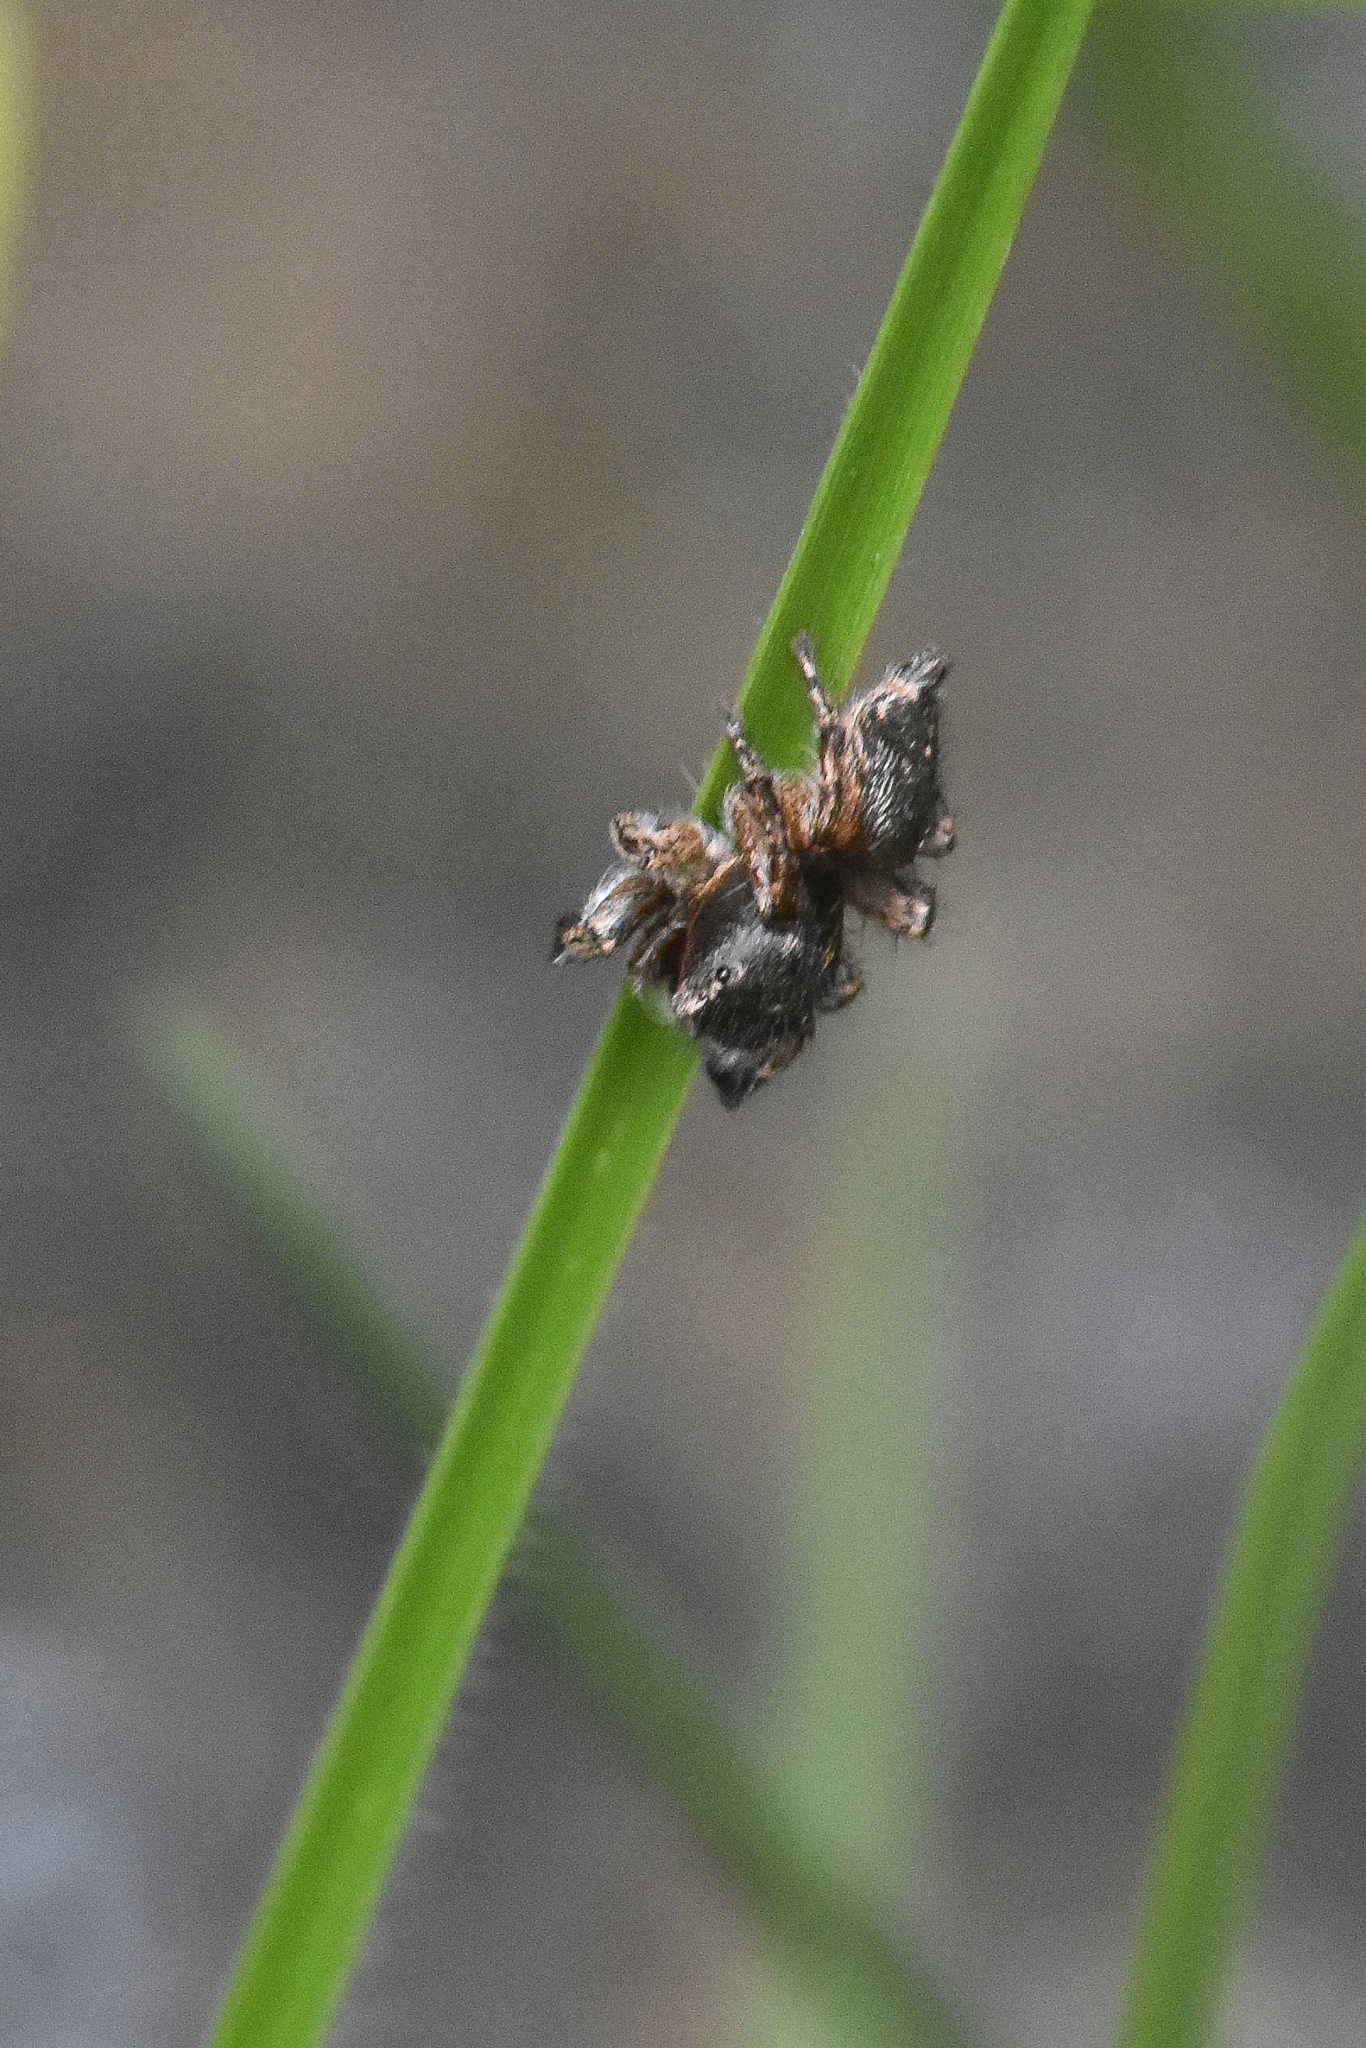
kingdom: Animalia
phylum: Arthropoda
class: Arachnida
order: Araneae
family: Salticidae
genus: Habronattus
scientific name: Habronattus hirsutus
